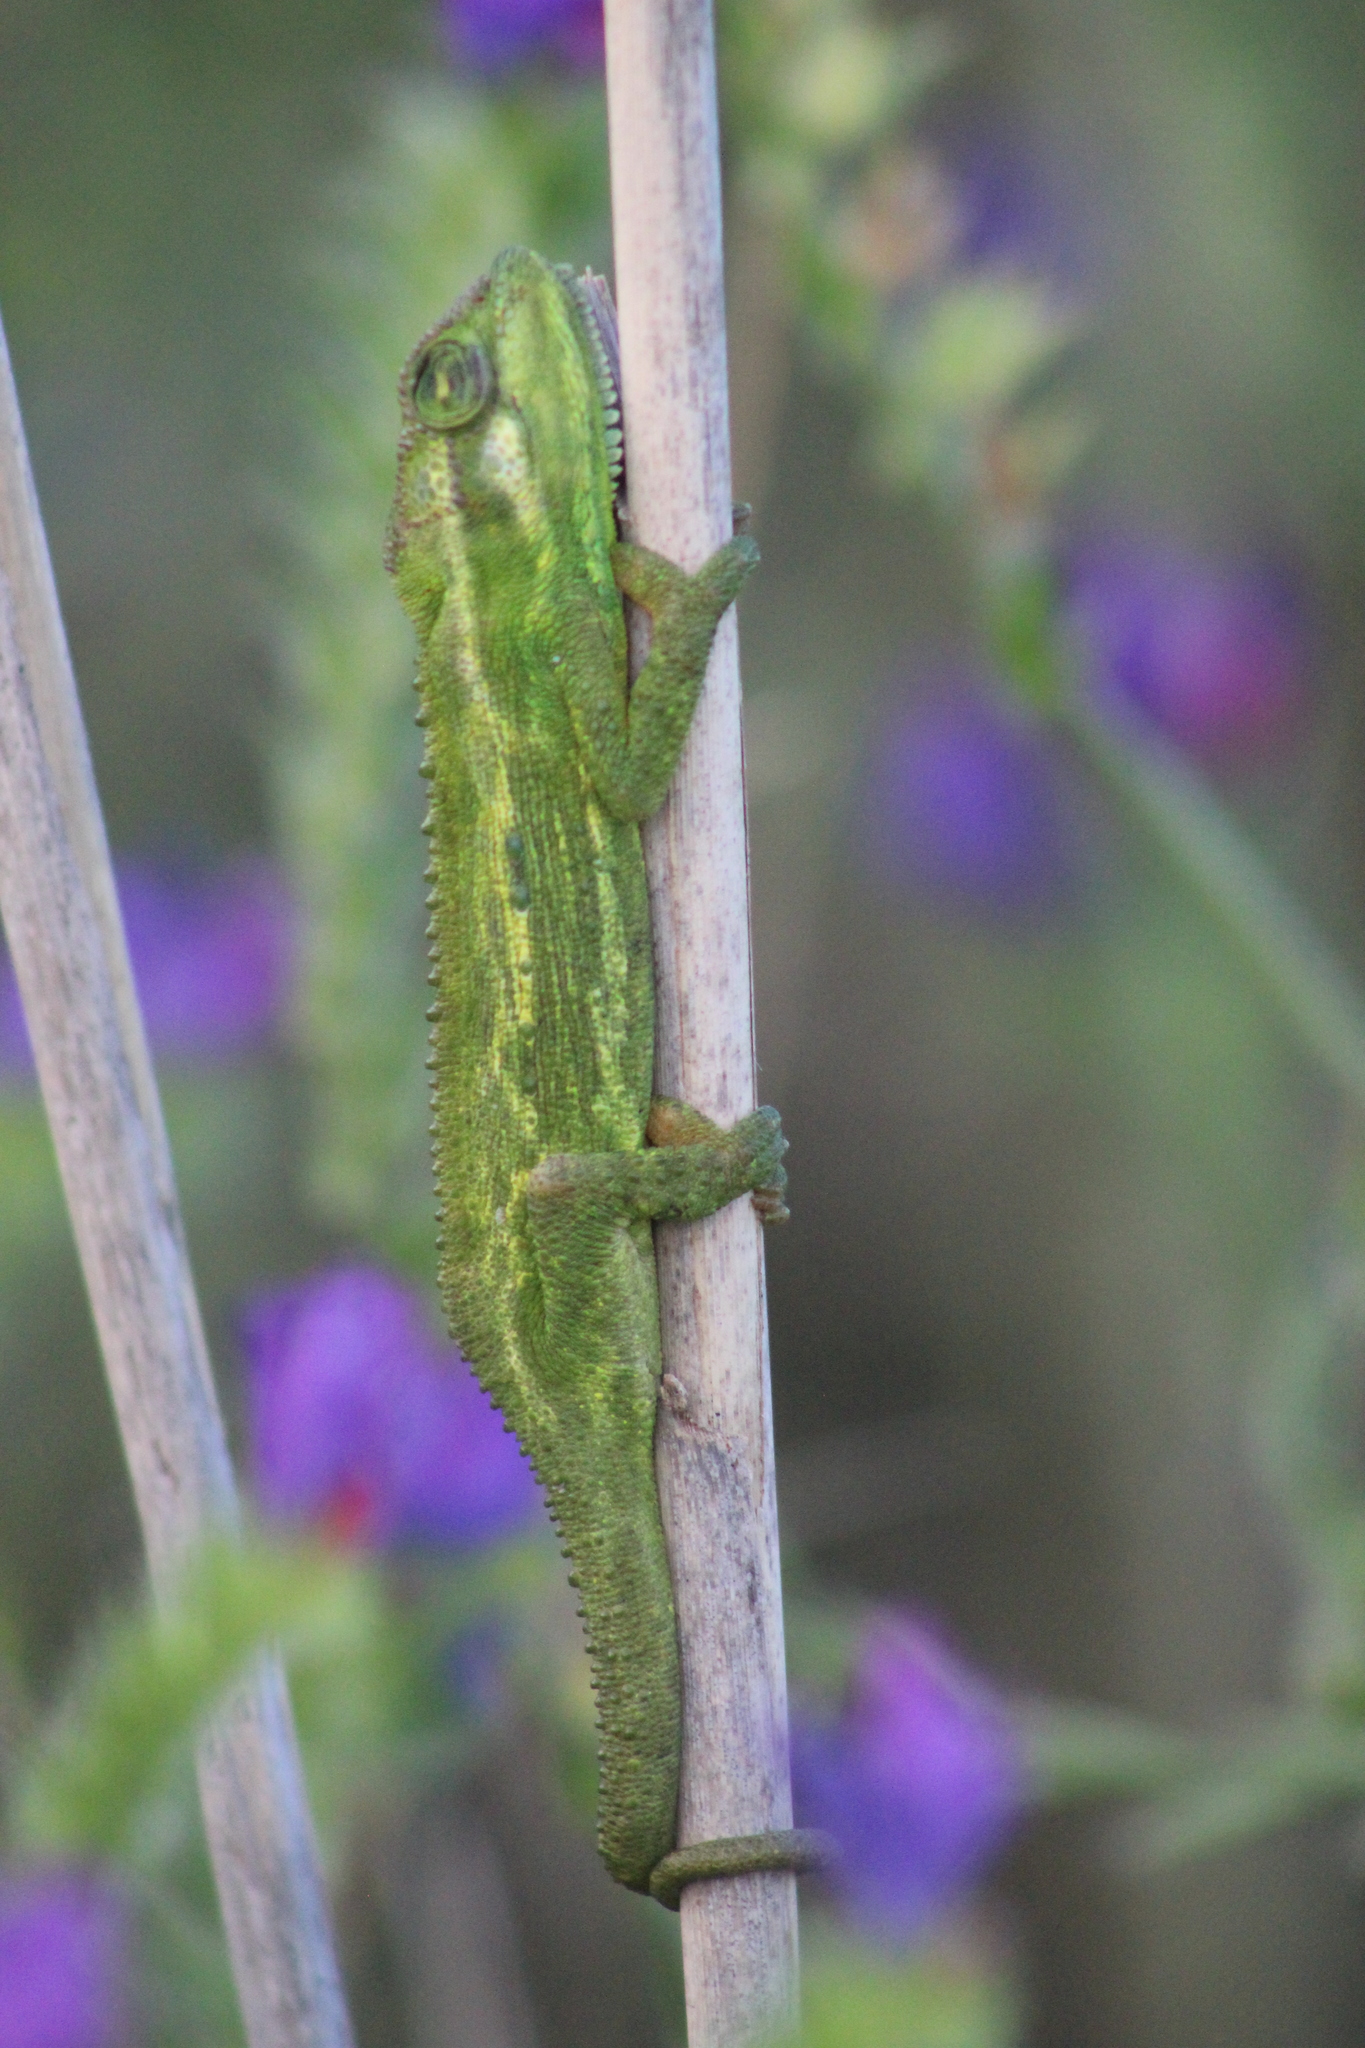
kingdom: Animalia
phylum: Chordata
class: Squamata
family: Chamaeleonidae
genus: Bradypodion
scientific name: Bradypodion pumilum
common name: Cape dwarf chameleon
